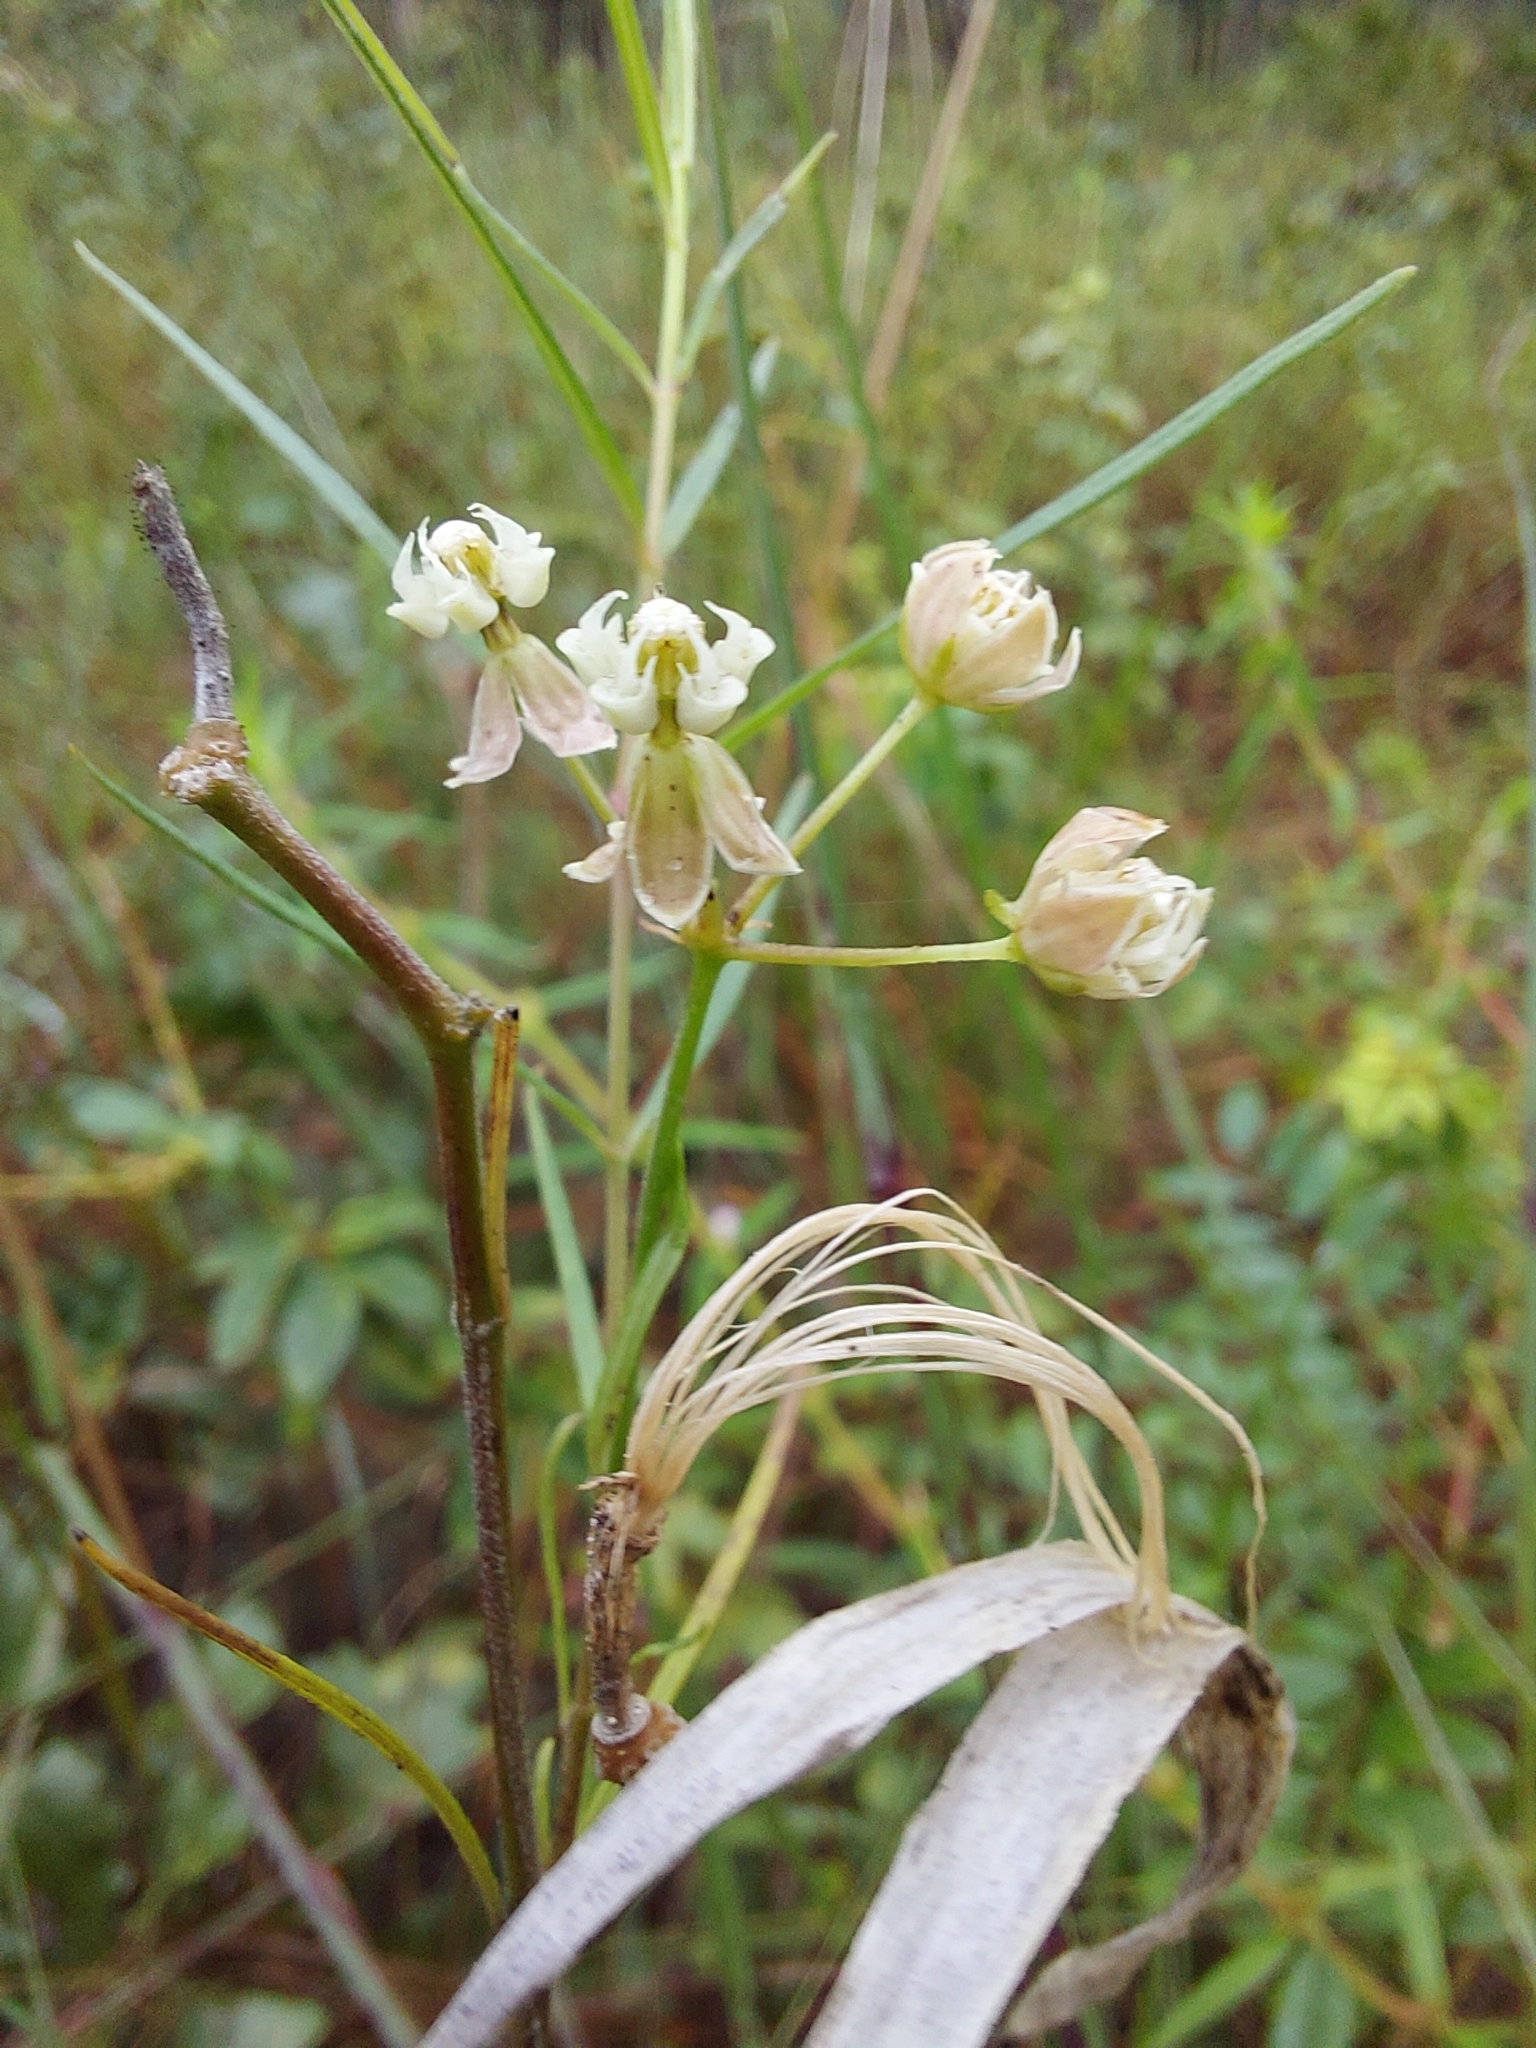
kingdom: Plantae
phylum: Tracheophyta
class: Magnoliopsida
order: Gentianales
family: Apocynaceae
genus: Asclepias
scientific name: Asclepias verticillata
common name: Eastern whorled milkweed
